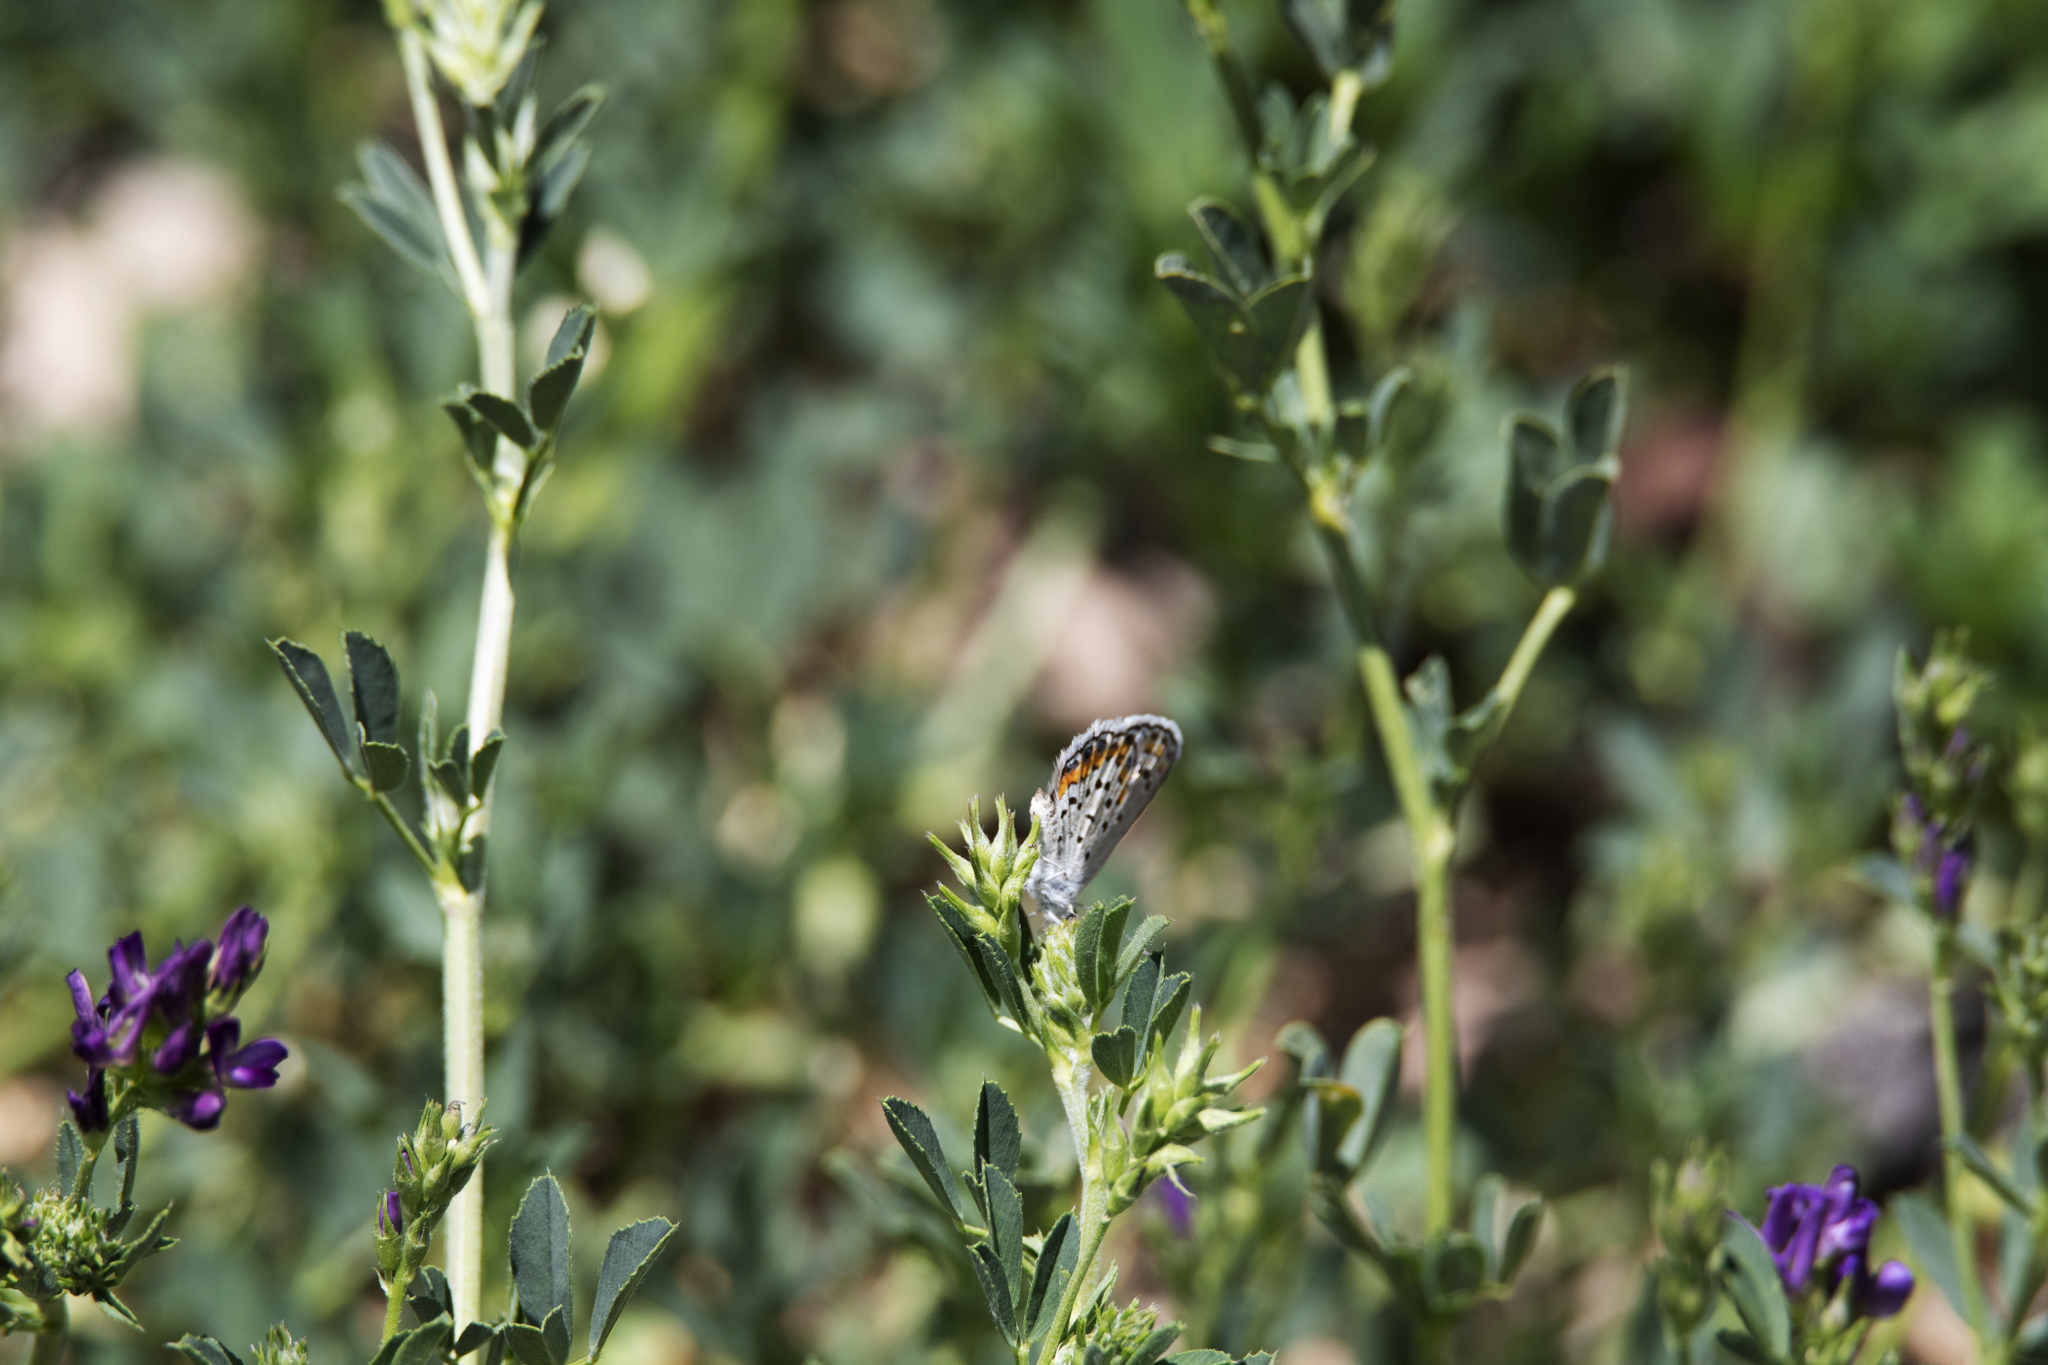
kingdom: Animalia
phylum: Arthropoda
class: Insecta
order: Lepidoptera
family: Lycaenidae
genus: Lycaeides
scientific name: Lycaeides melissa
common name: Melissa blue
